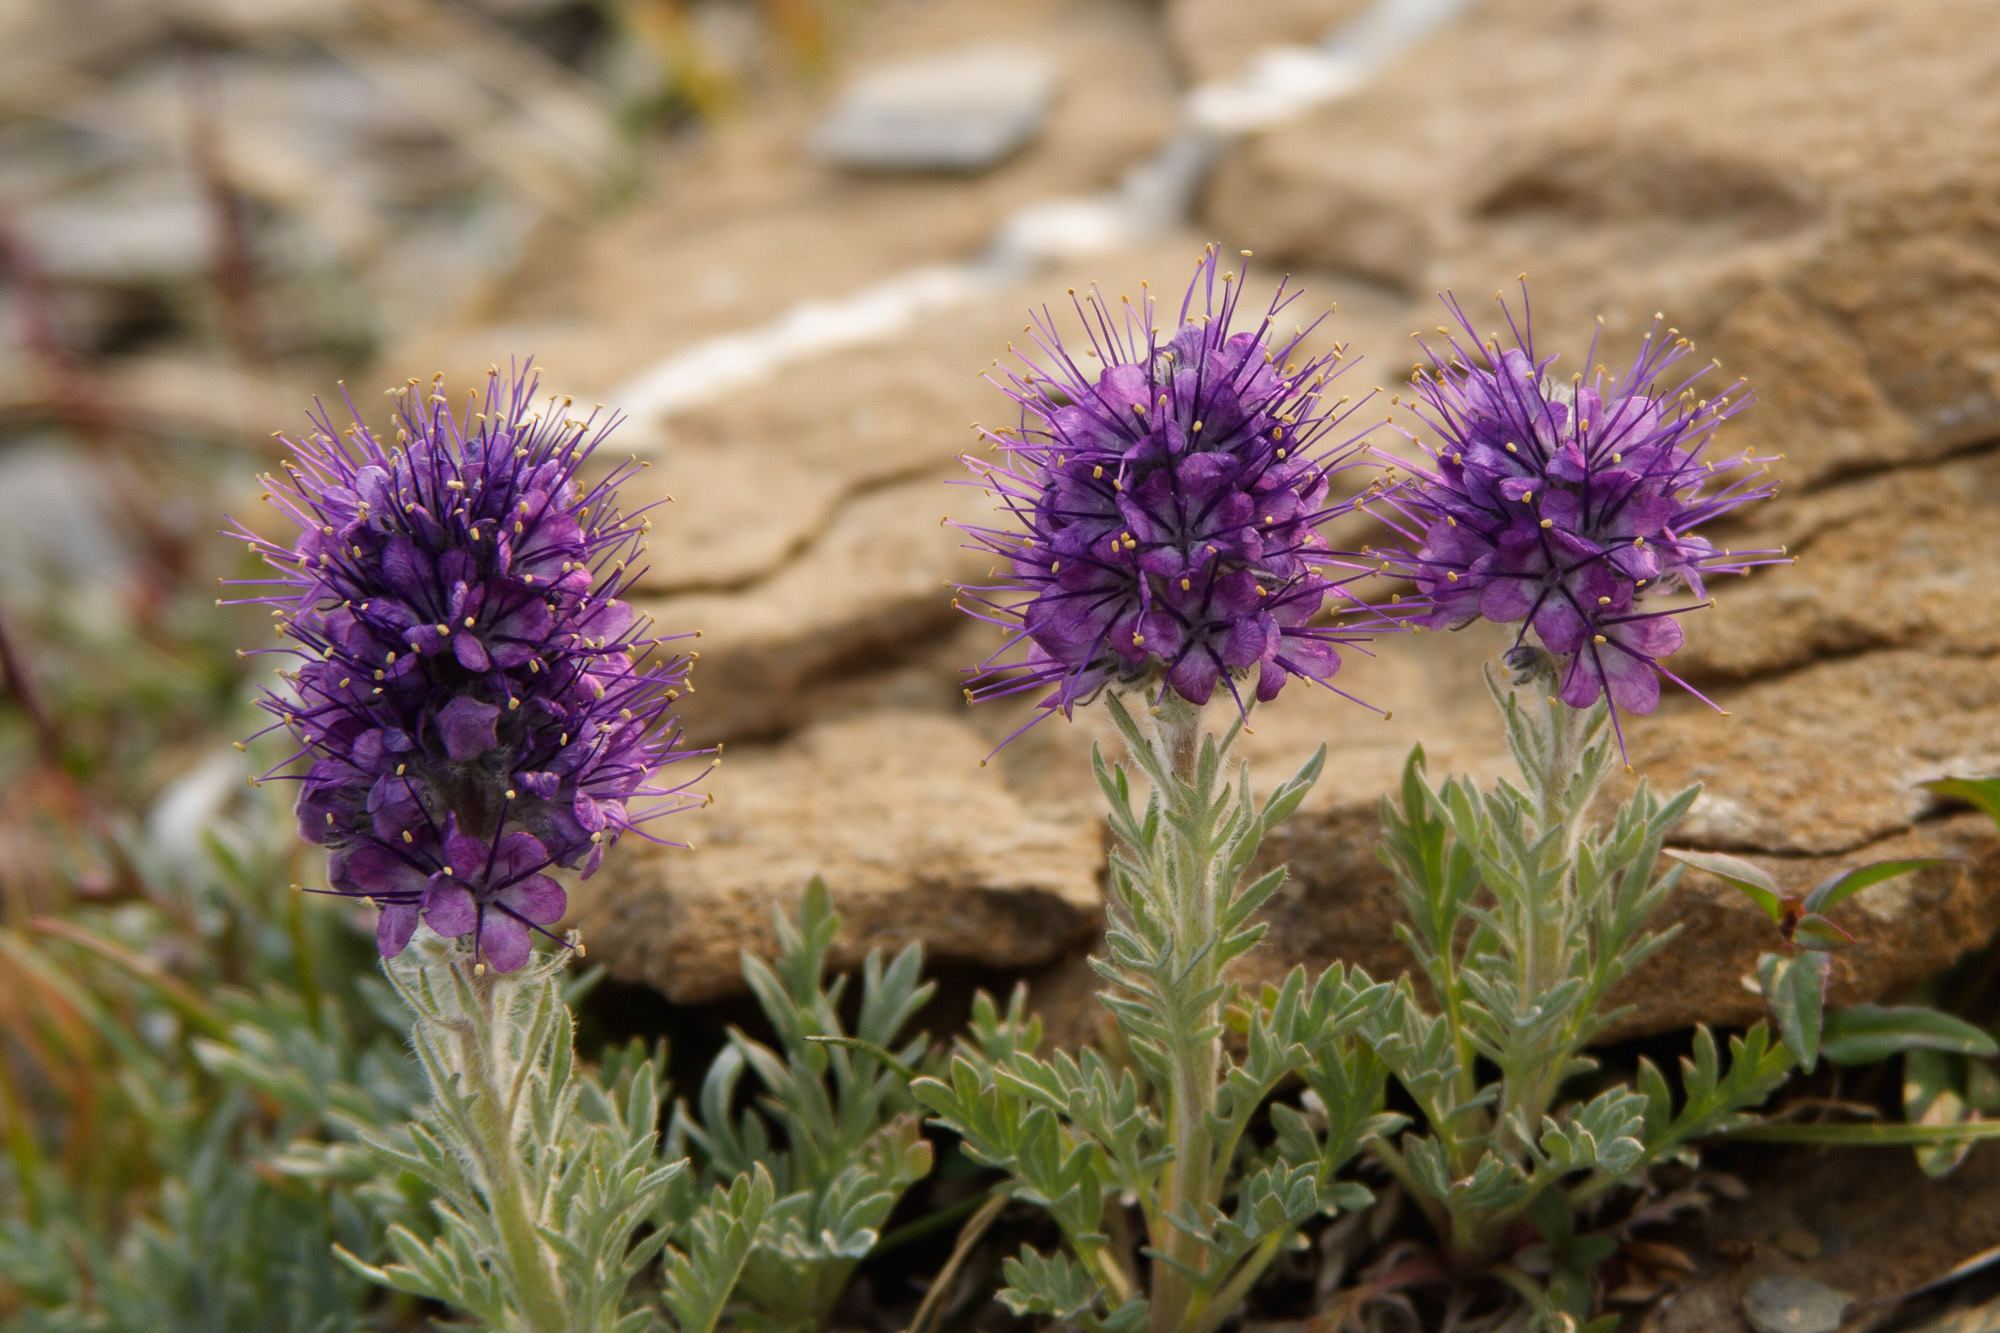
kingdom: Plantae
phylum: Tracheophyta
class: Magnoliopsida
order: Boraginales
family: Hydrophyllaceae
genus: Phacelia
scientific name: Phacelia sericea
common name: Silky phacelia
